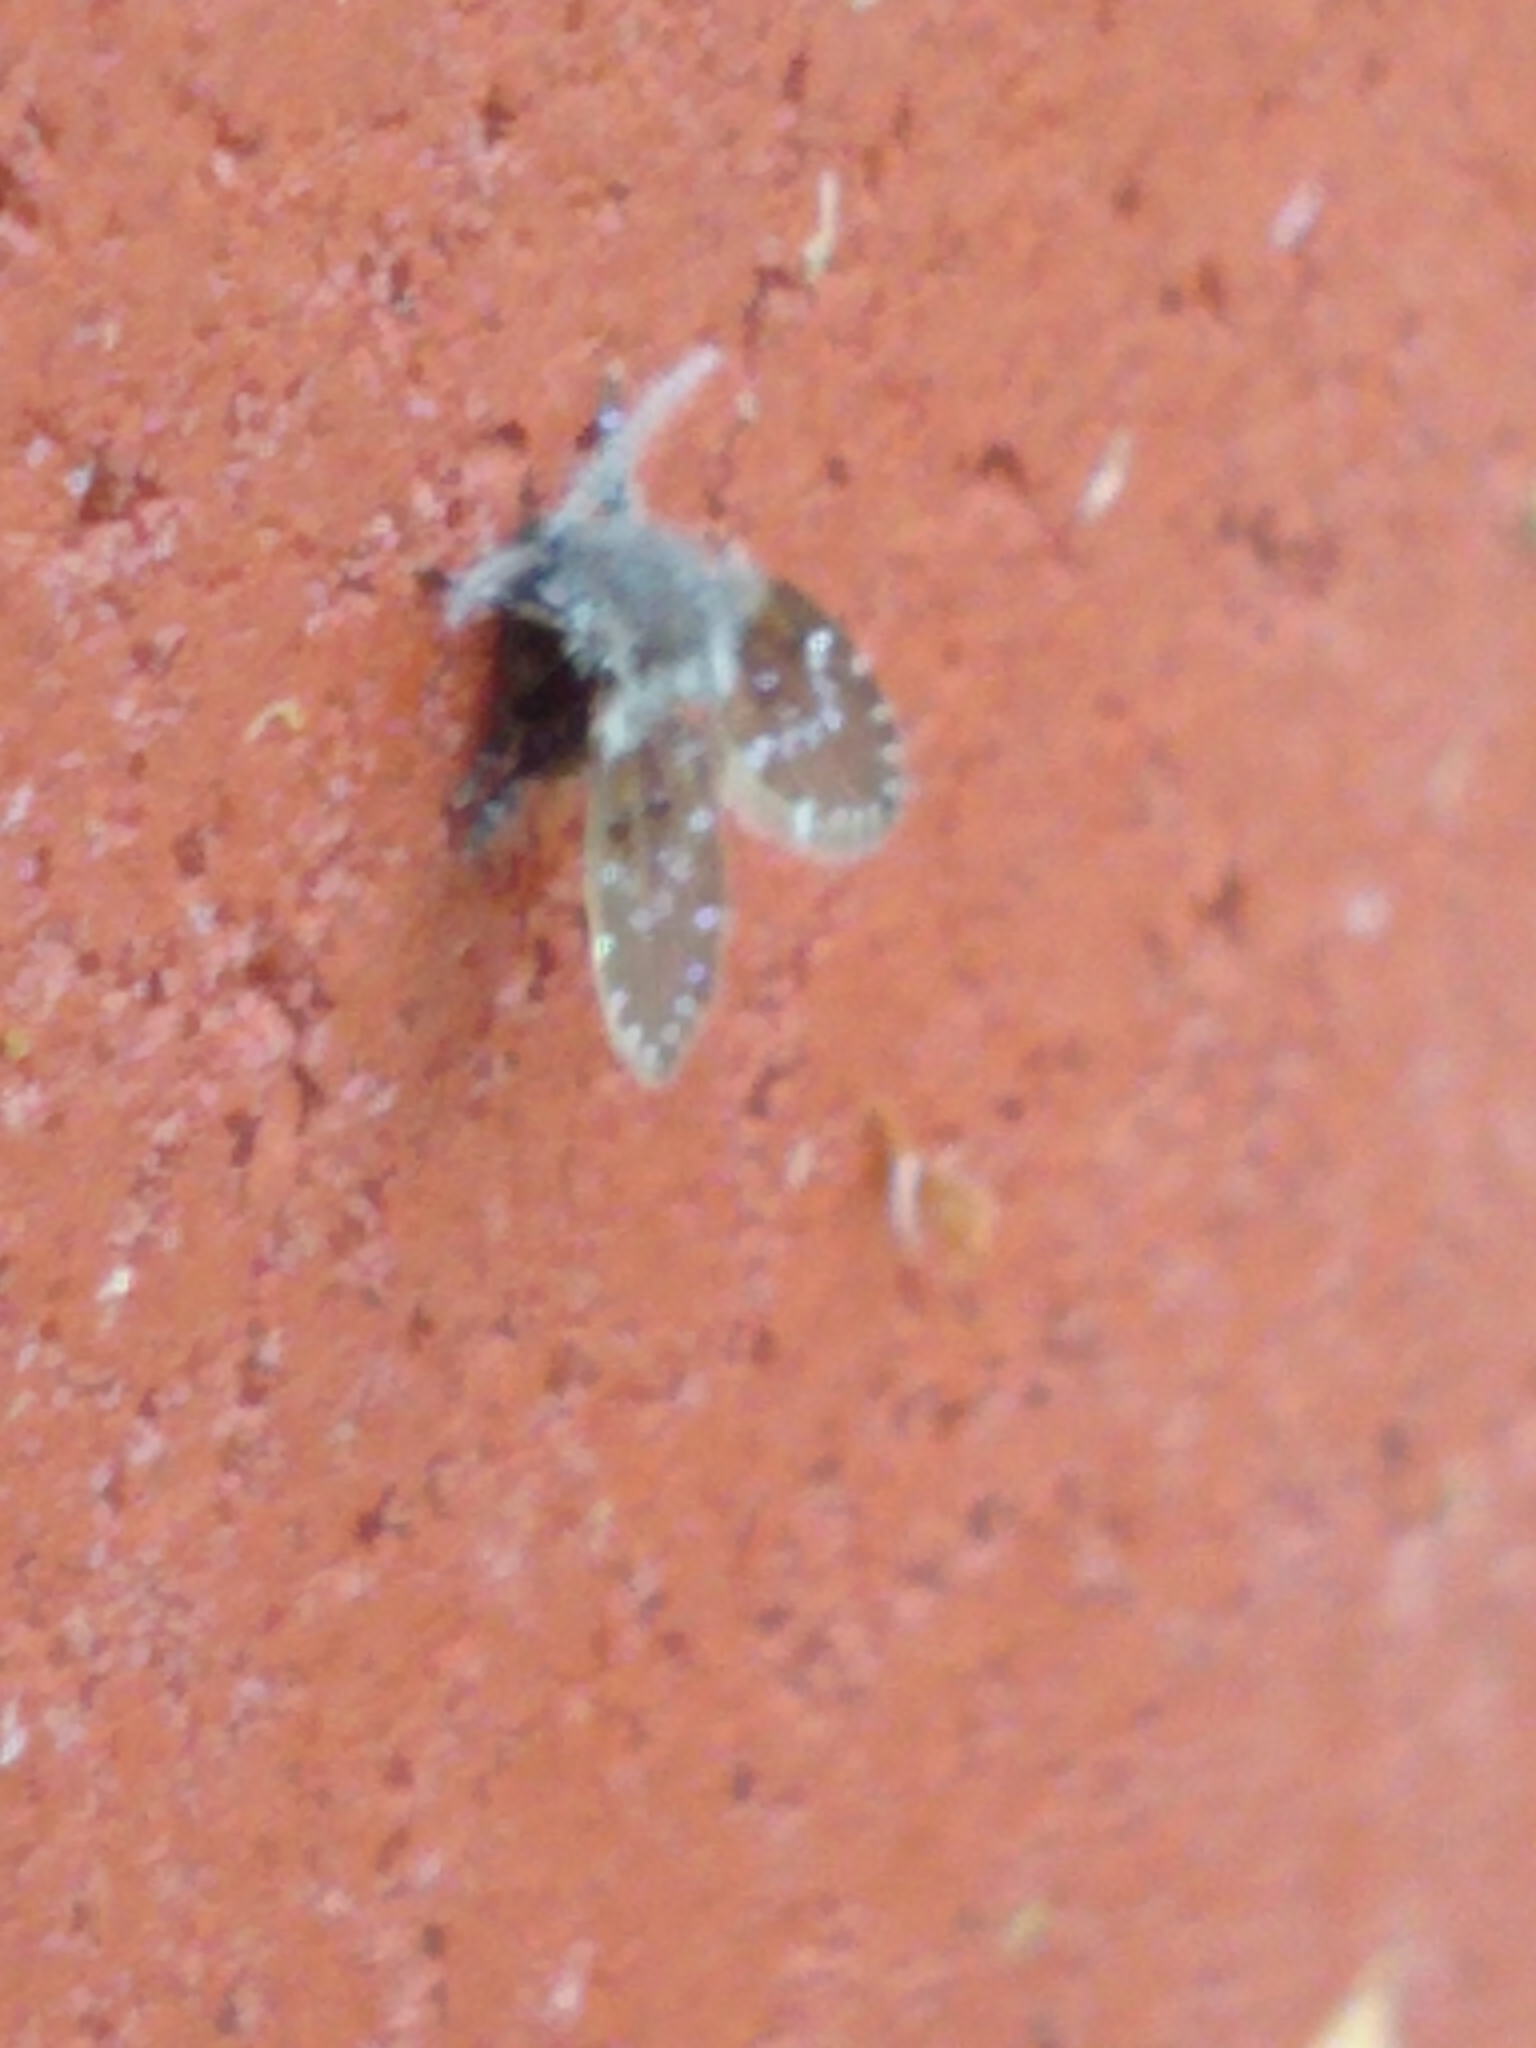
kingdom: Animalia
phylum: Arthropoda
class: Insecta
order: Diptera
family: Psychodidae
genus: Clogmia
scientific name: Clogmia albipunctatus
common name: White-spotted moth fly
